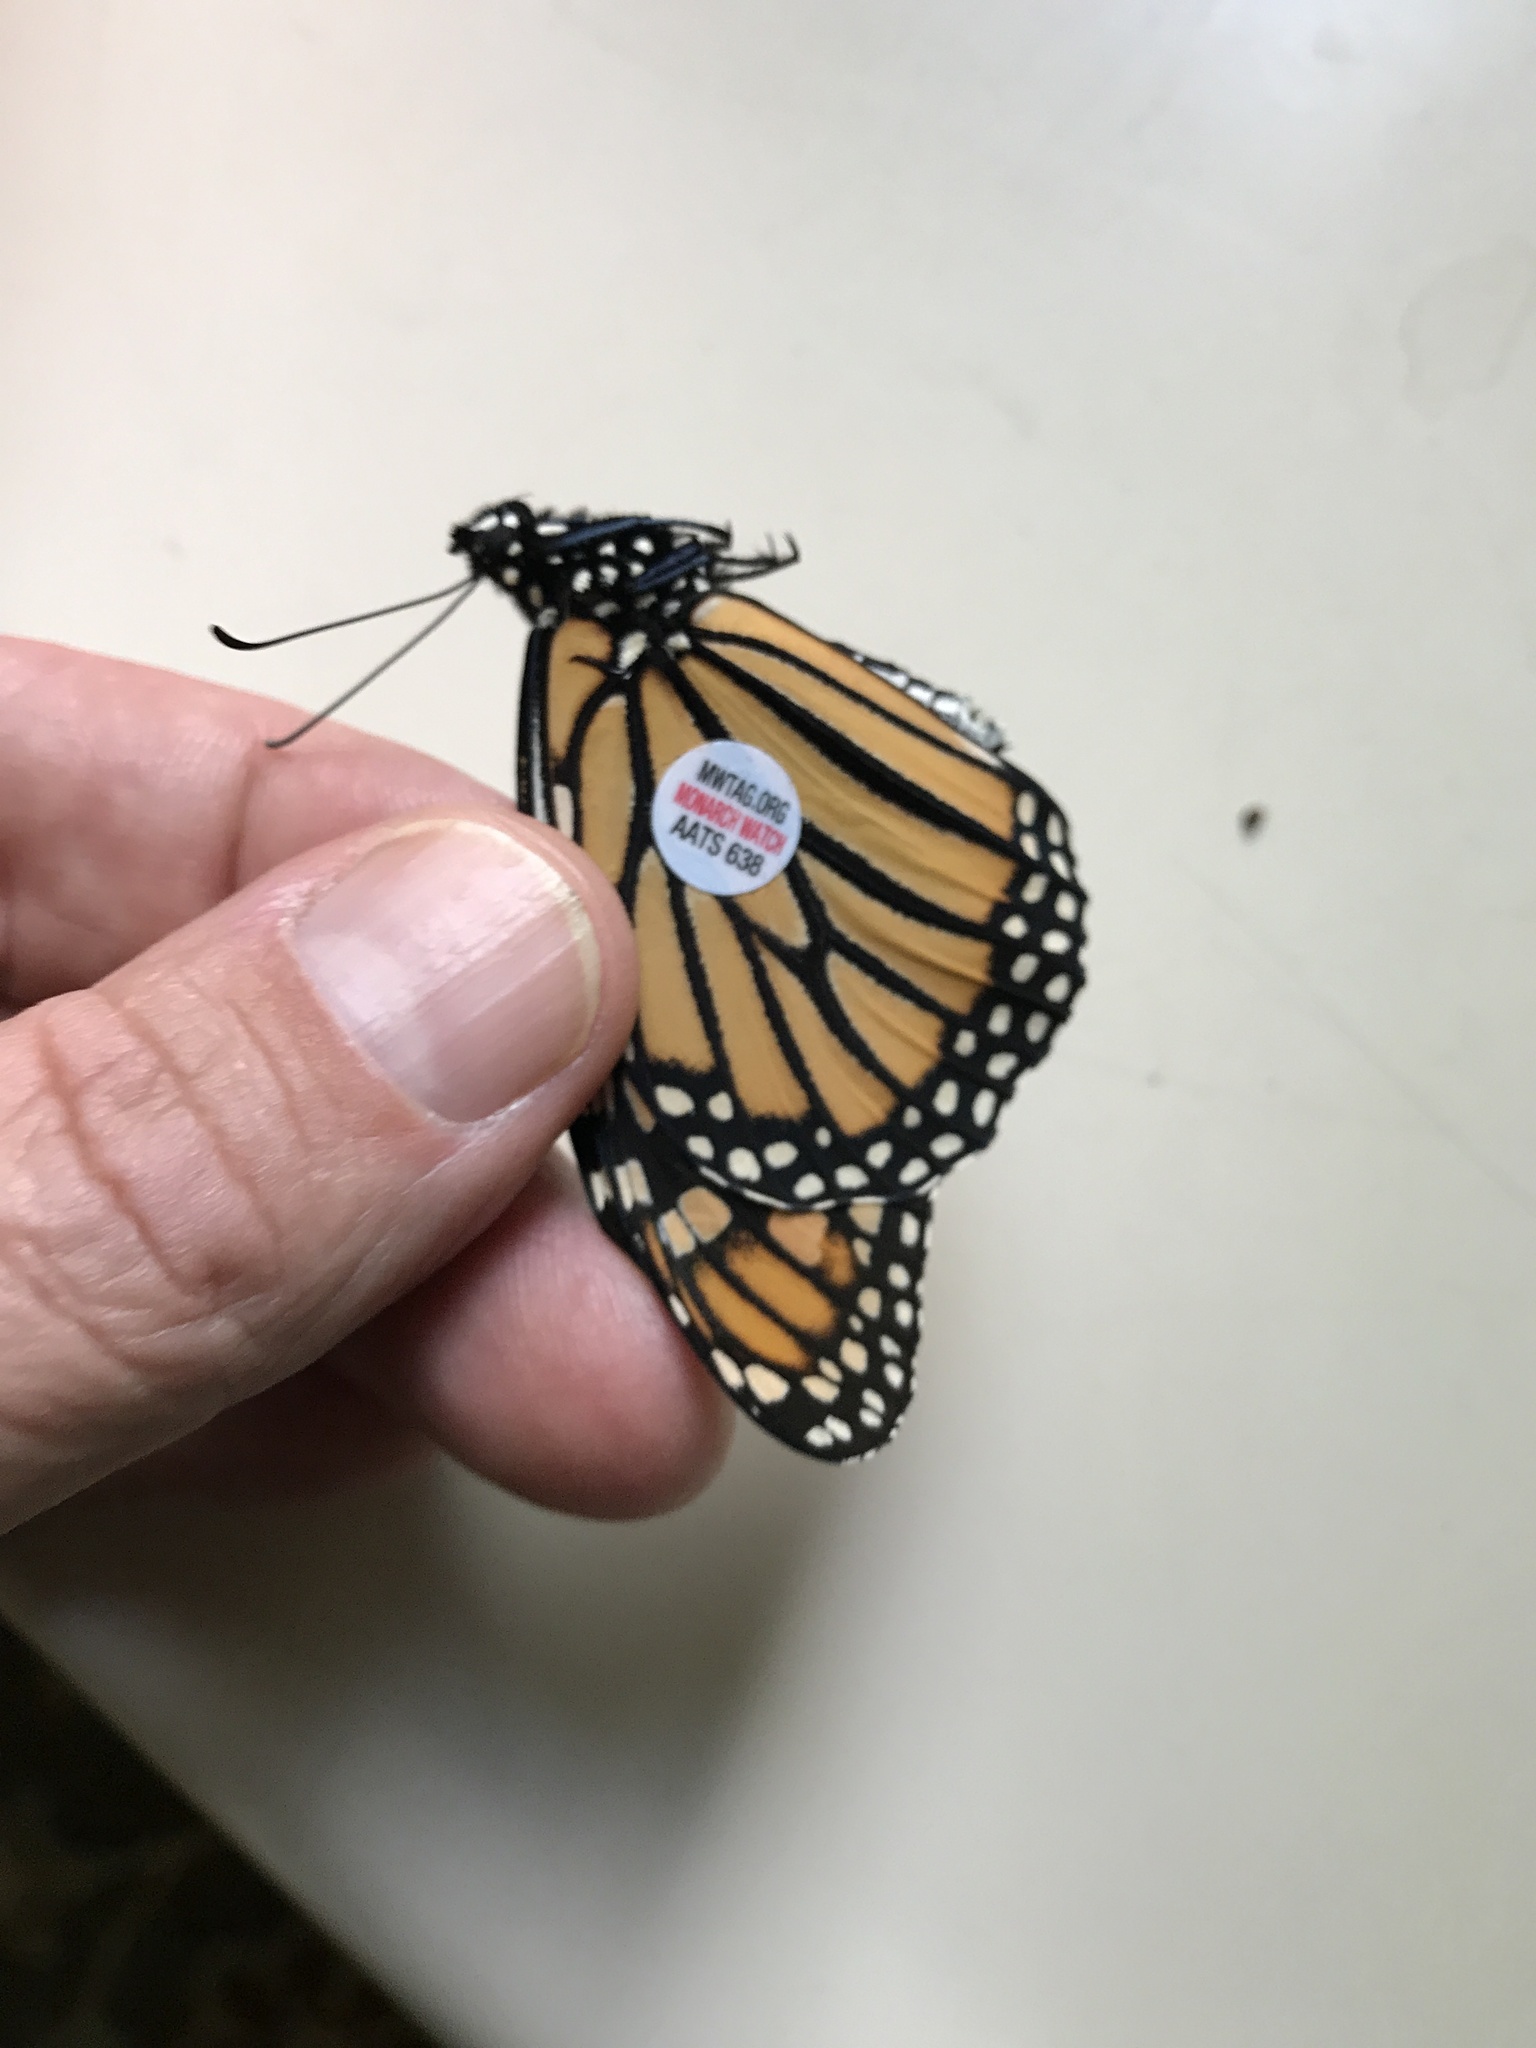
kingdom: Animalia
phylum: Arthropoda
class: Insecta
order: Lepidoptera
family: Nymphalidae
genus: Danaus
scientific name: Danaus plexippus
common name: Monarch
